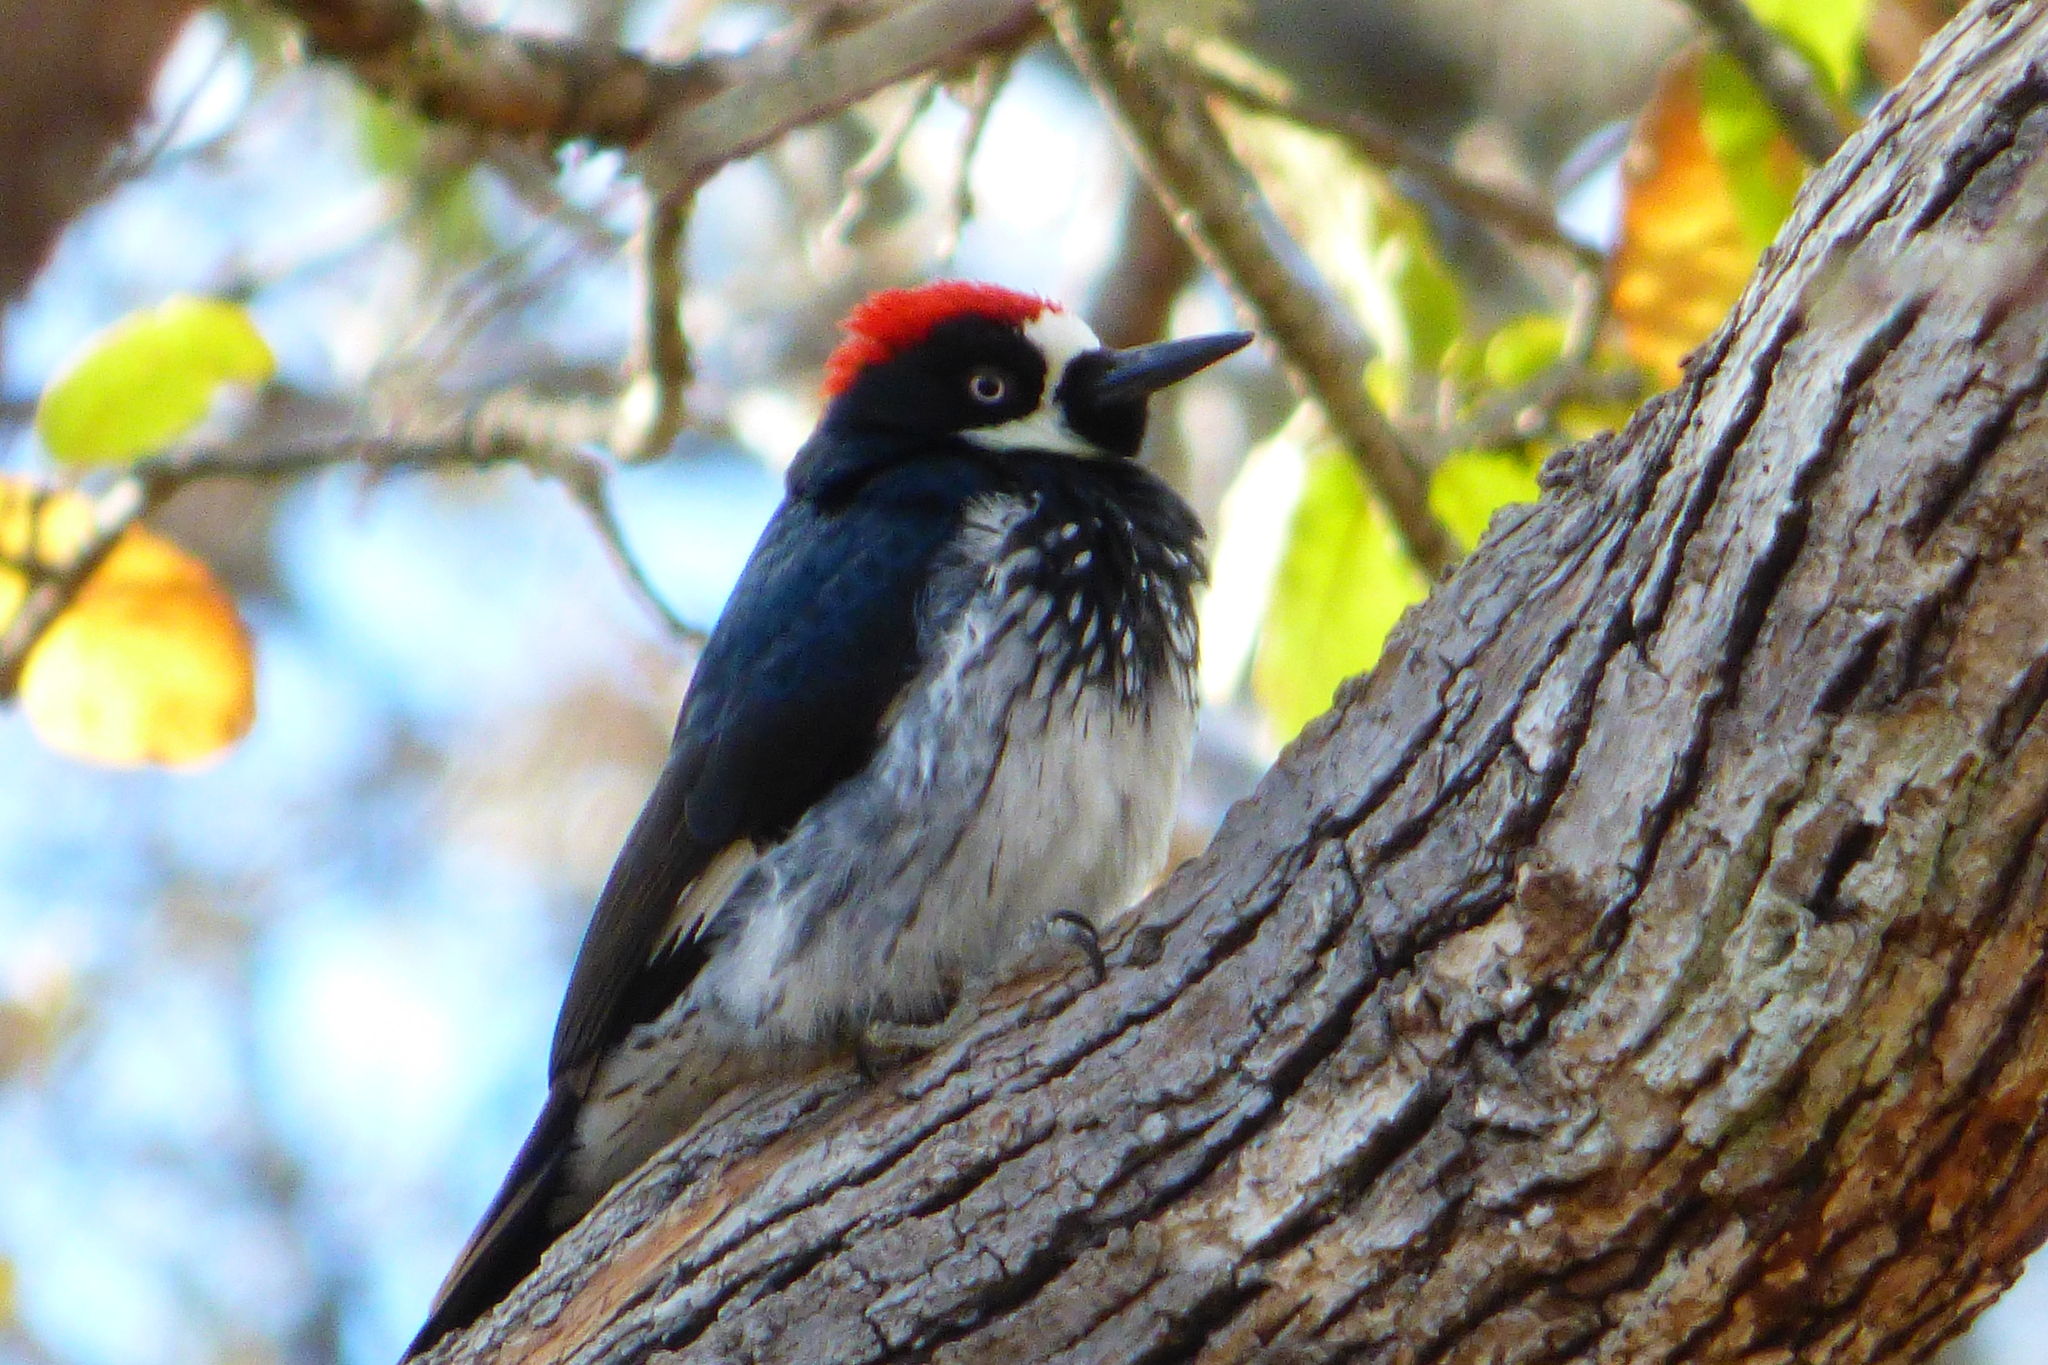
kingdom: Animalia
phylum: Chordata
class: Aves
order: Piciformes
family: Picidae
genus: Melanerpes
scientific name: Melanerpes formicivorus
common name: Acorn woodpecker
